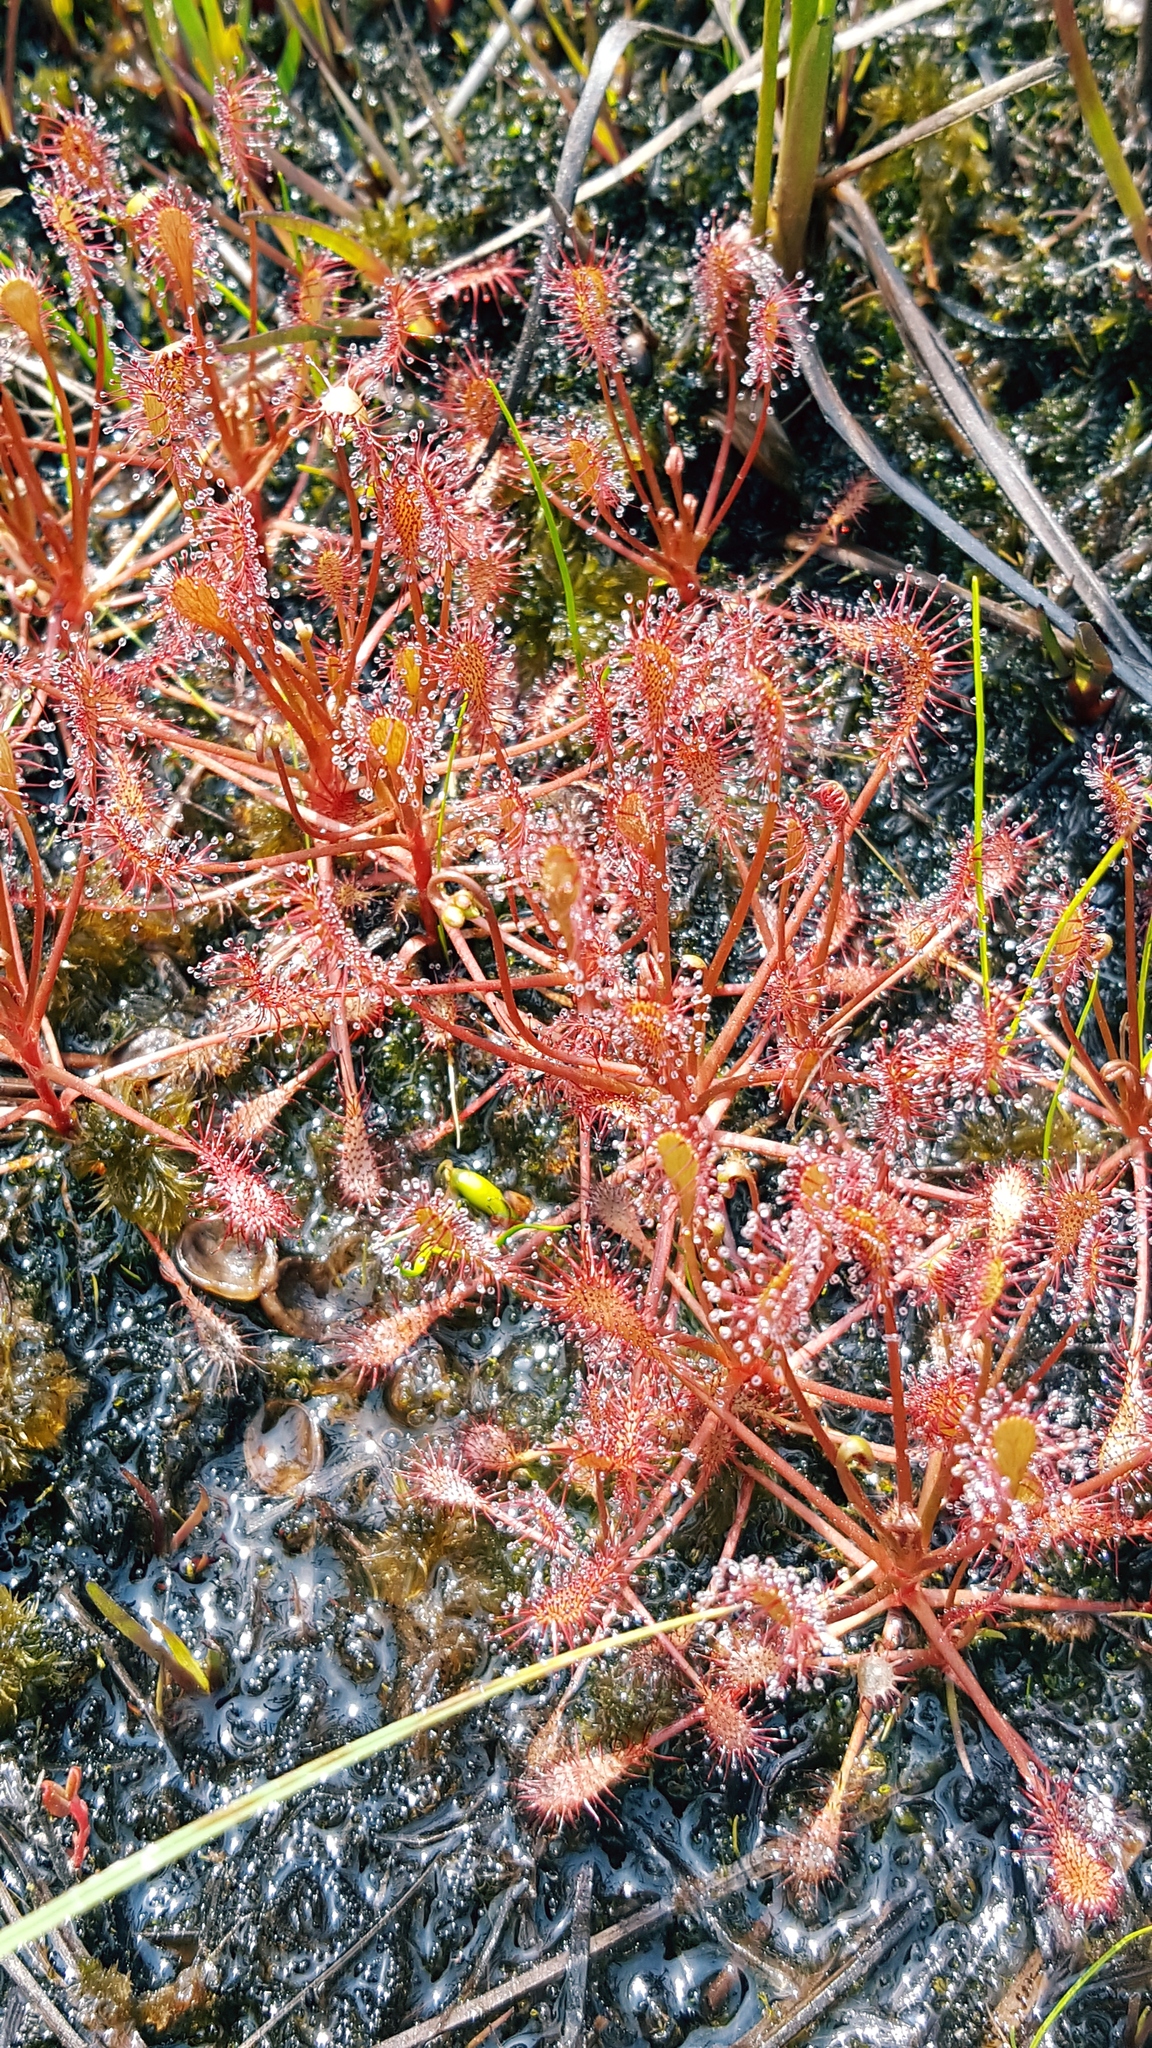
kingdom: Plantae
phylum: Tracheophyta
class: Magnoliopsida
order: Caryophyllales
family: Droseraceae
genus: Drosera
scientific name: Drosera intermedia
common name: Oblong-leaved sundew
